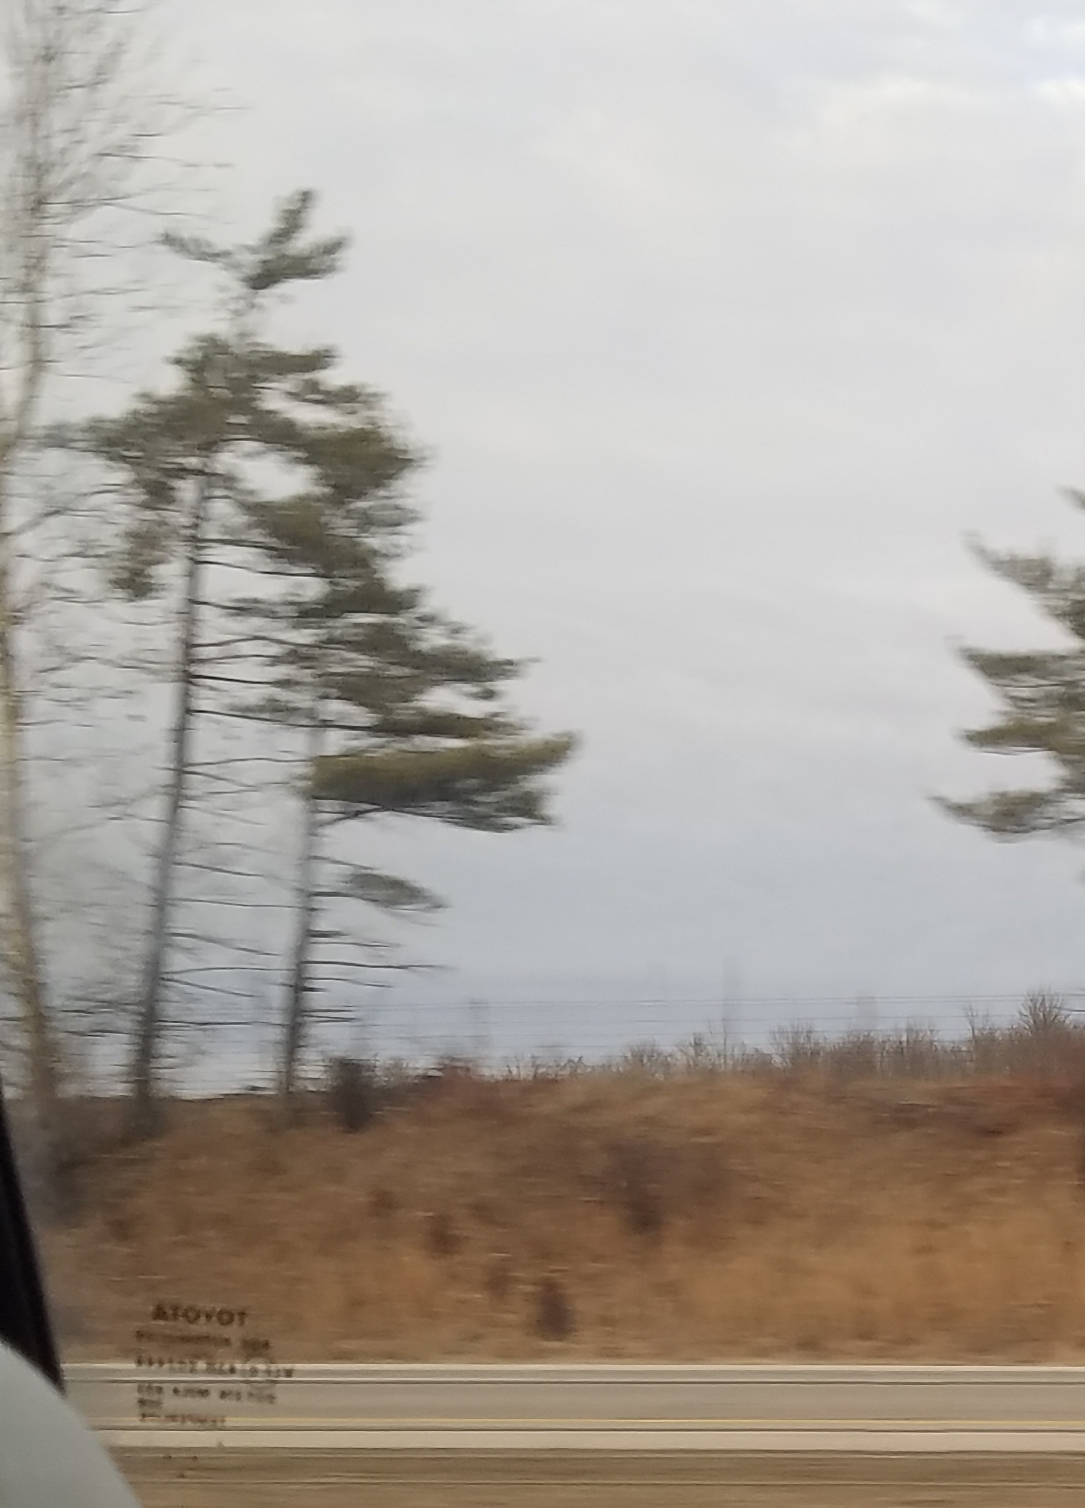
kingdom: Plantae
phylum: Tracheophyta
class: Pinopsida
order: Pinales
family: Pinaceae
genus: Pinus
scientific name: Pinus strobus
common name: Weymouth pine
